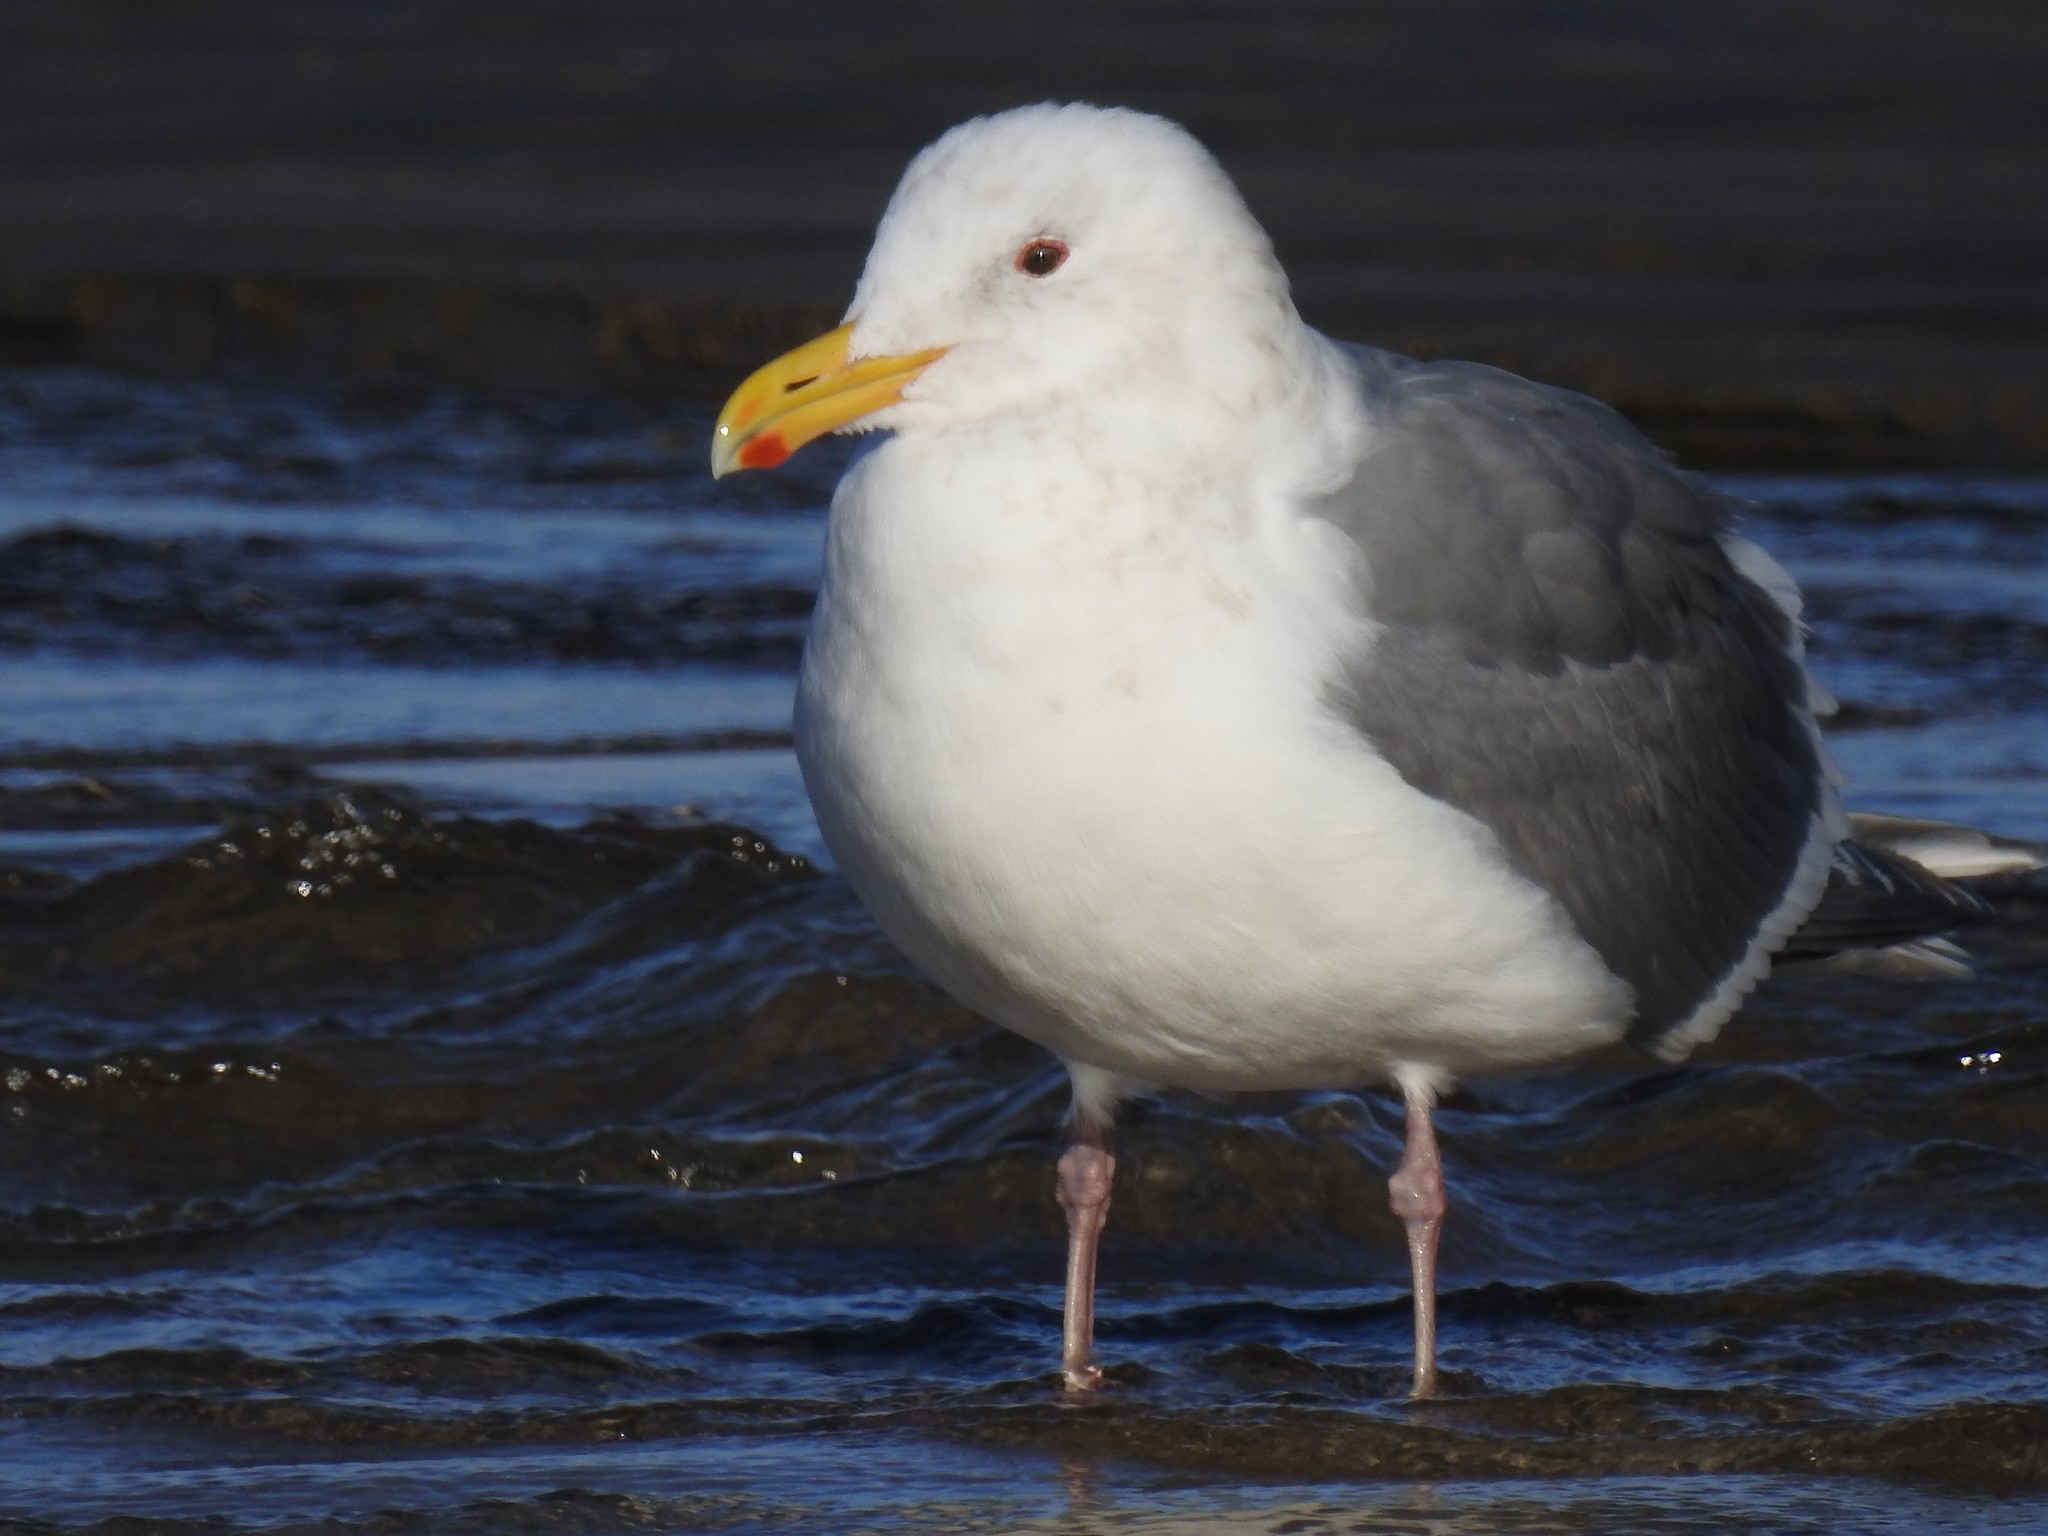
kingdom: Animalia
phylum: Chordata
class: Aves
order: Charadriiformes
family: Laridae
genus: Larus
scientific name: Larus
